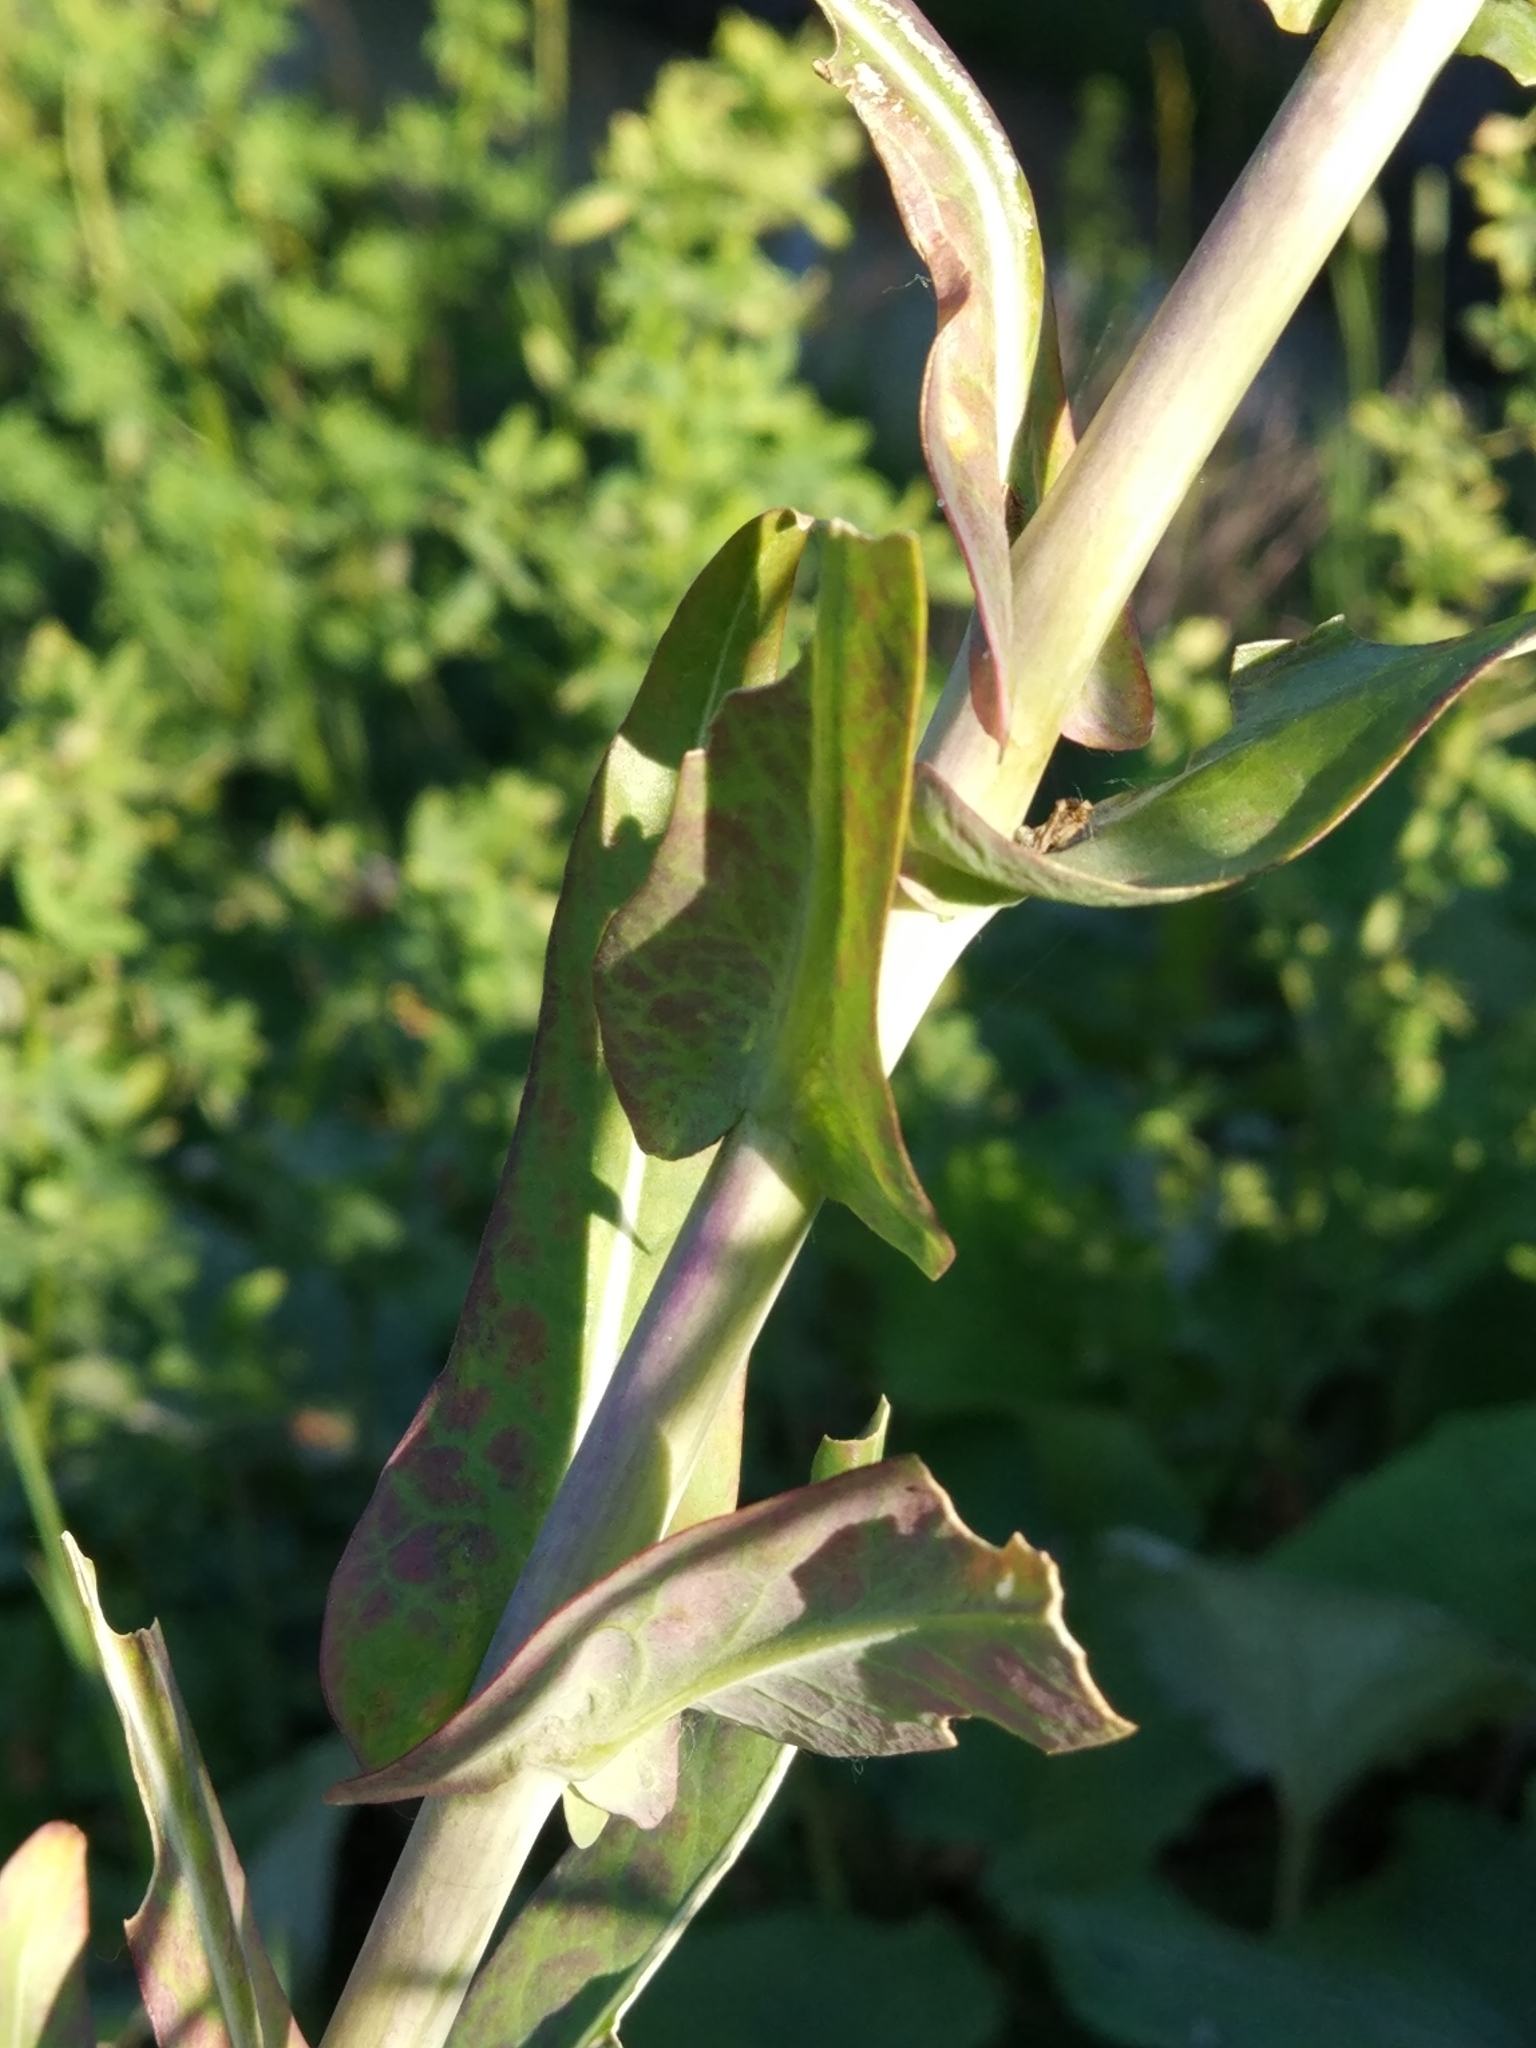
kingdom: Plantae
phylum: Tracheophyta
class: Magnoliopsida
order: Brassicales
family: Brassicaceae
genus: Isatis
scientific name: Isatis tinctoria
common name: Woad
